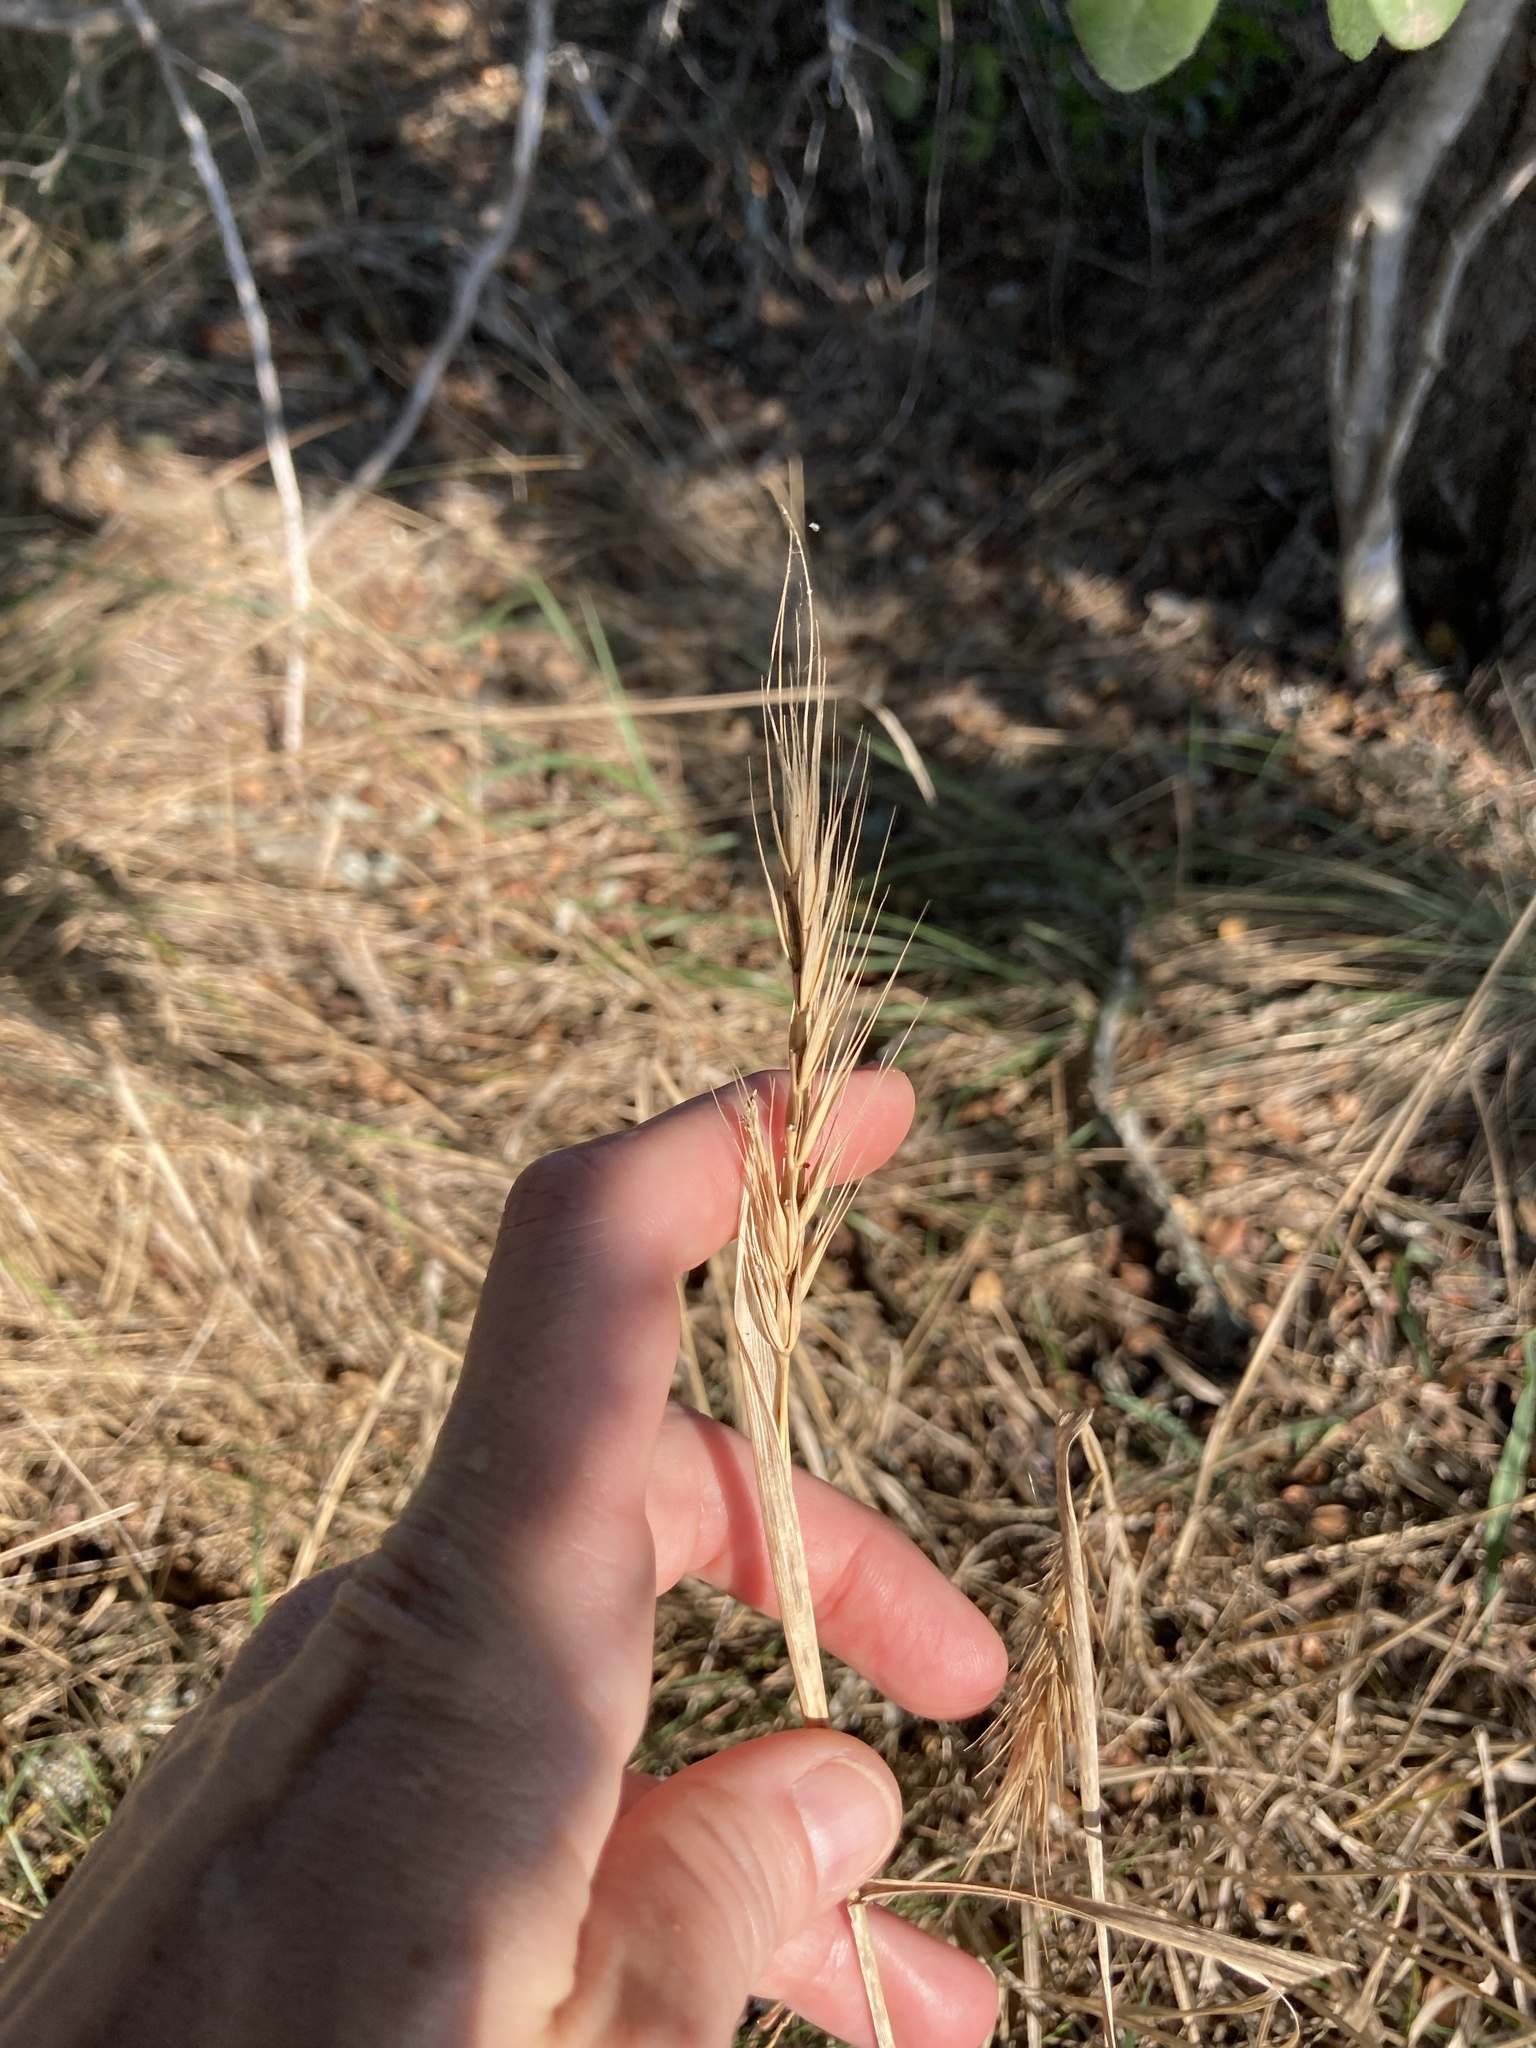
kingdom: Plantae
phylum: Tracheophyta
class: Liliopsida
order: Poales
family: Poaceae
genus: Elymus
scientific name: Elymus virginicus
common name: Common eastern wildrye
